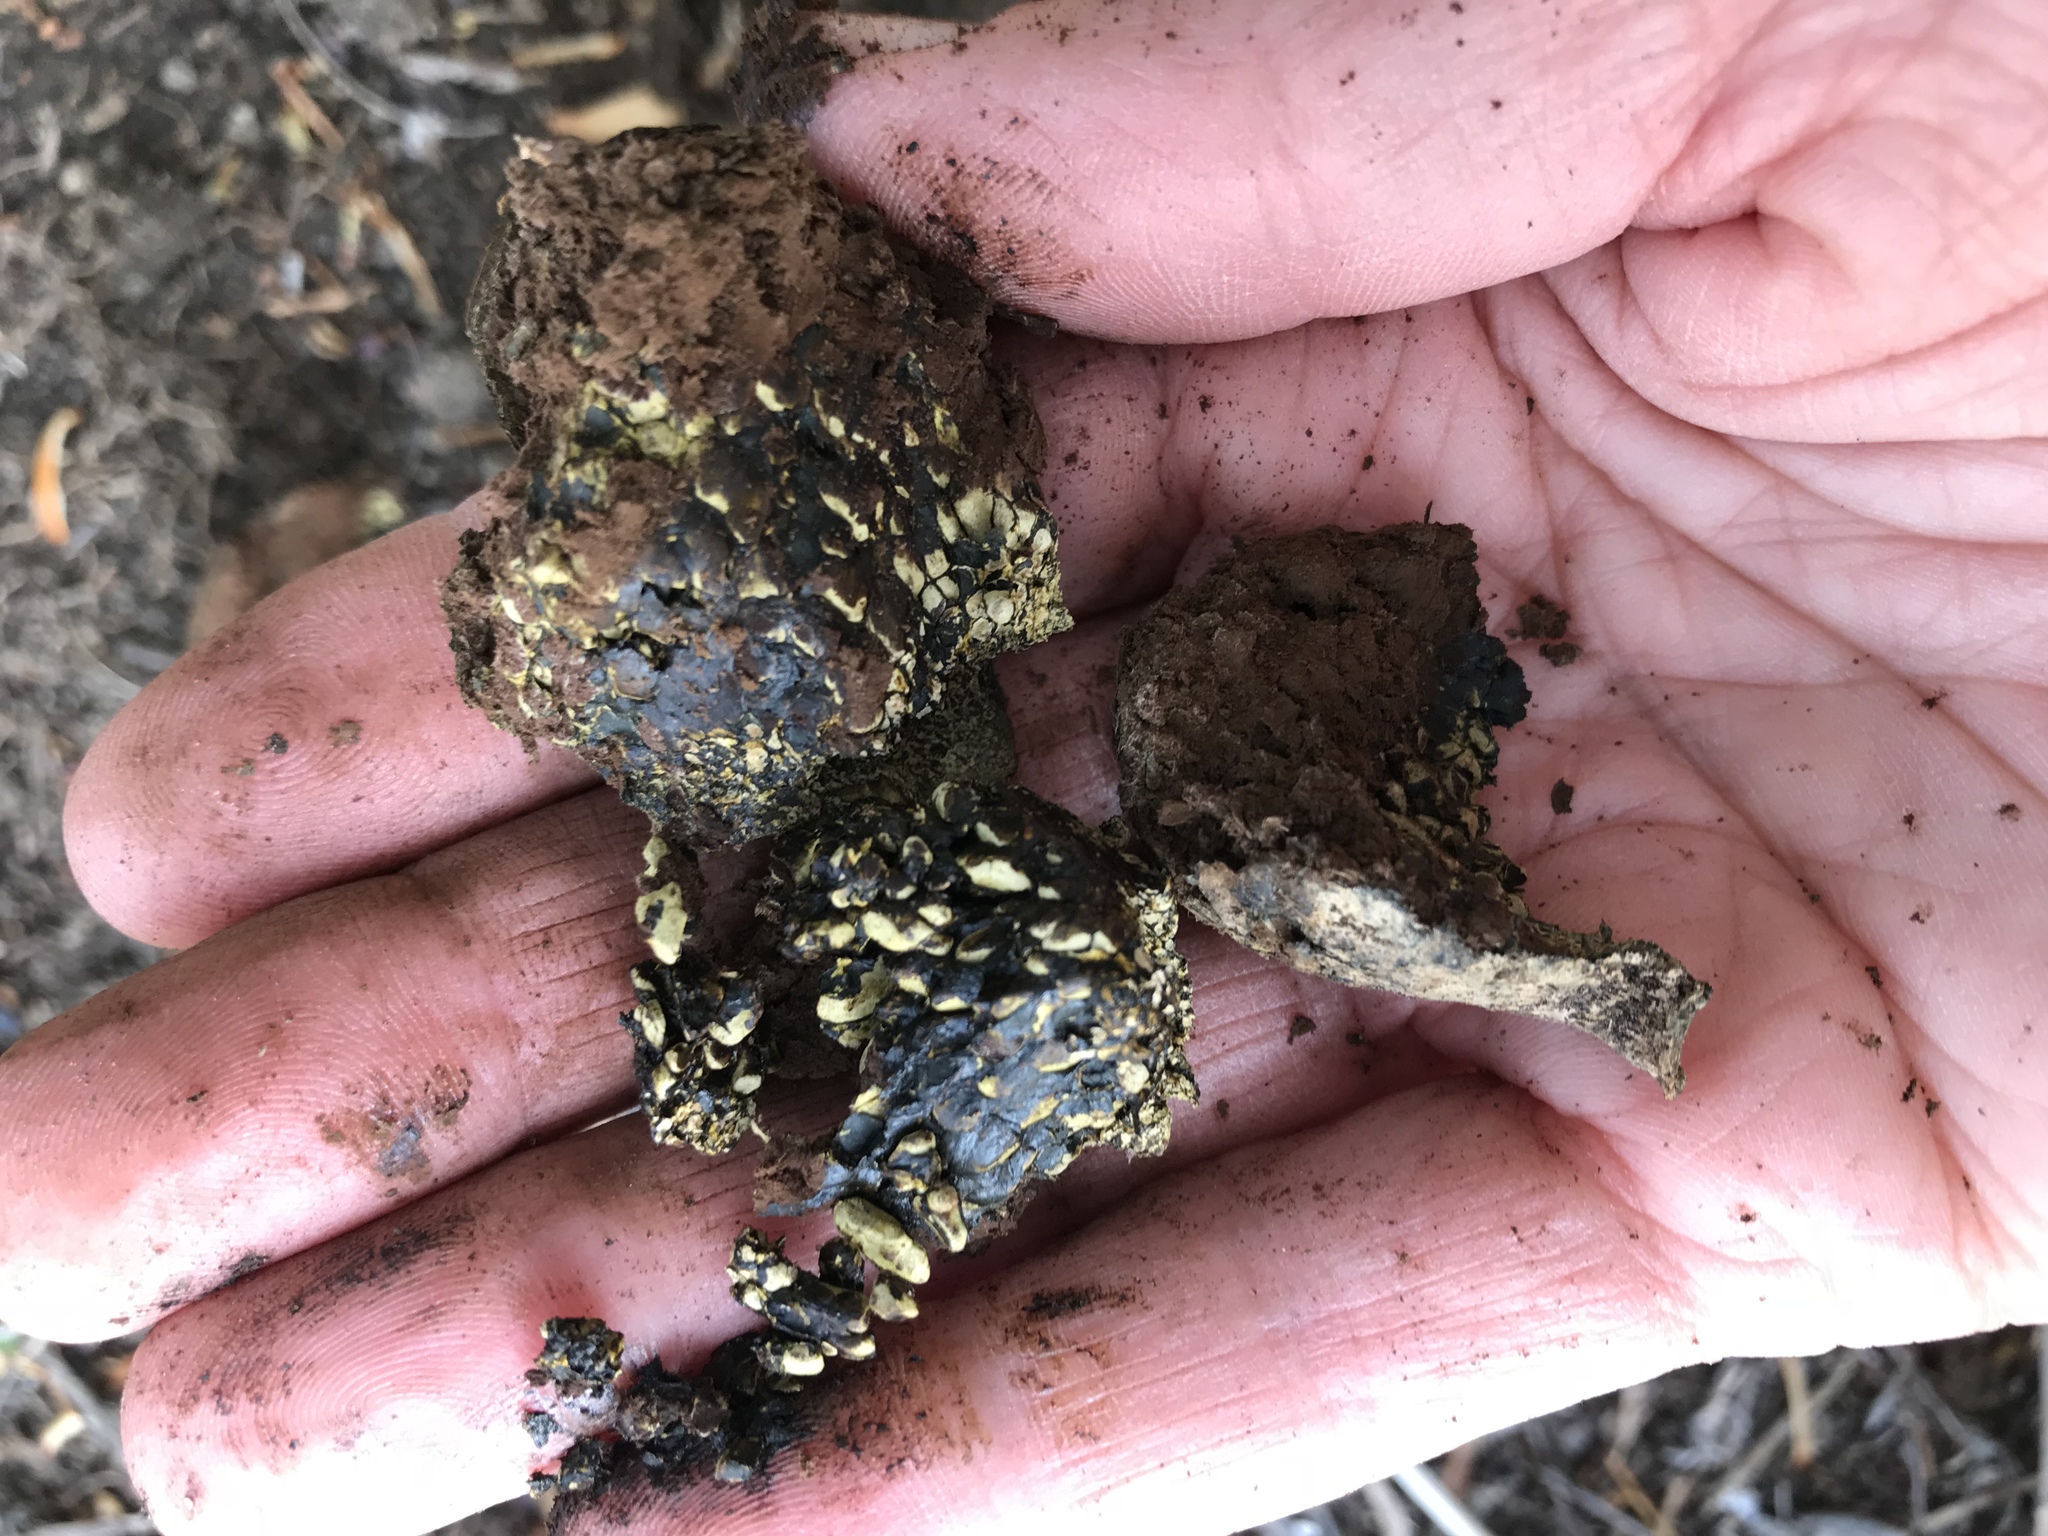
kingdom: Fungi
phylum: Basidiomycota
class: Agaricomycetes
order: Boletales
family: Sclerodermataceae
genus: Pisolithus
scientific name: Pisolithus arhizus
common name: Dyeball
